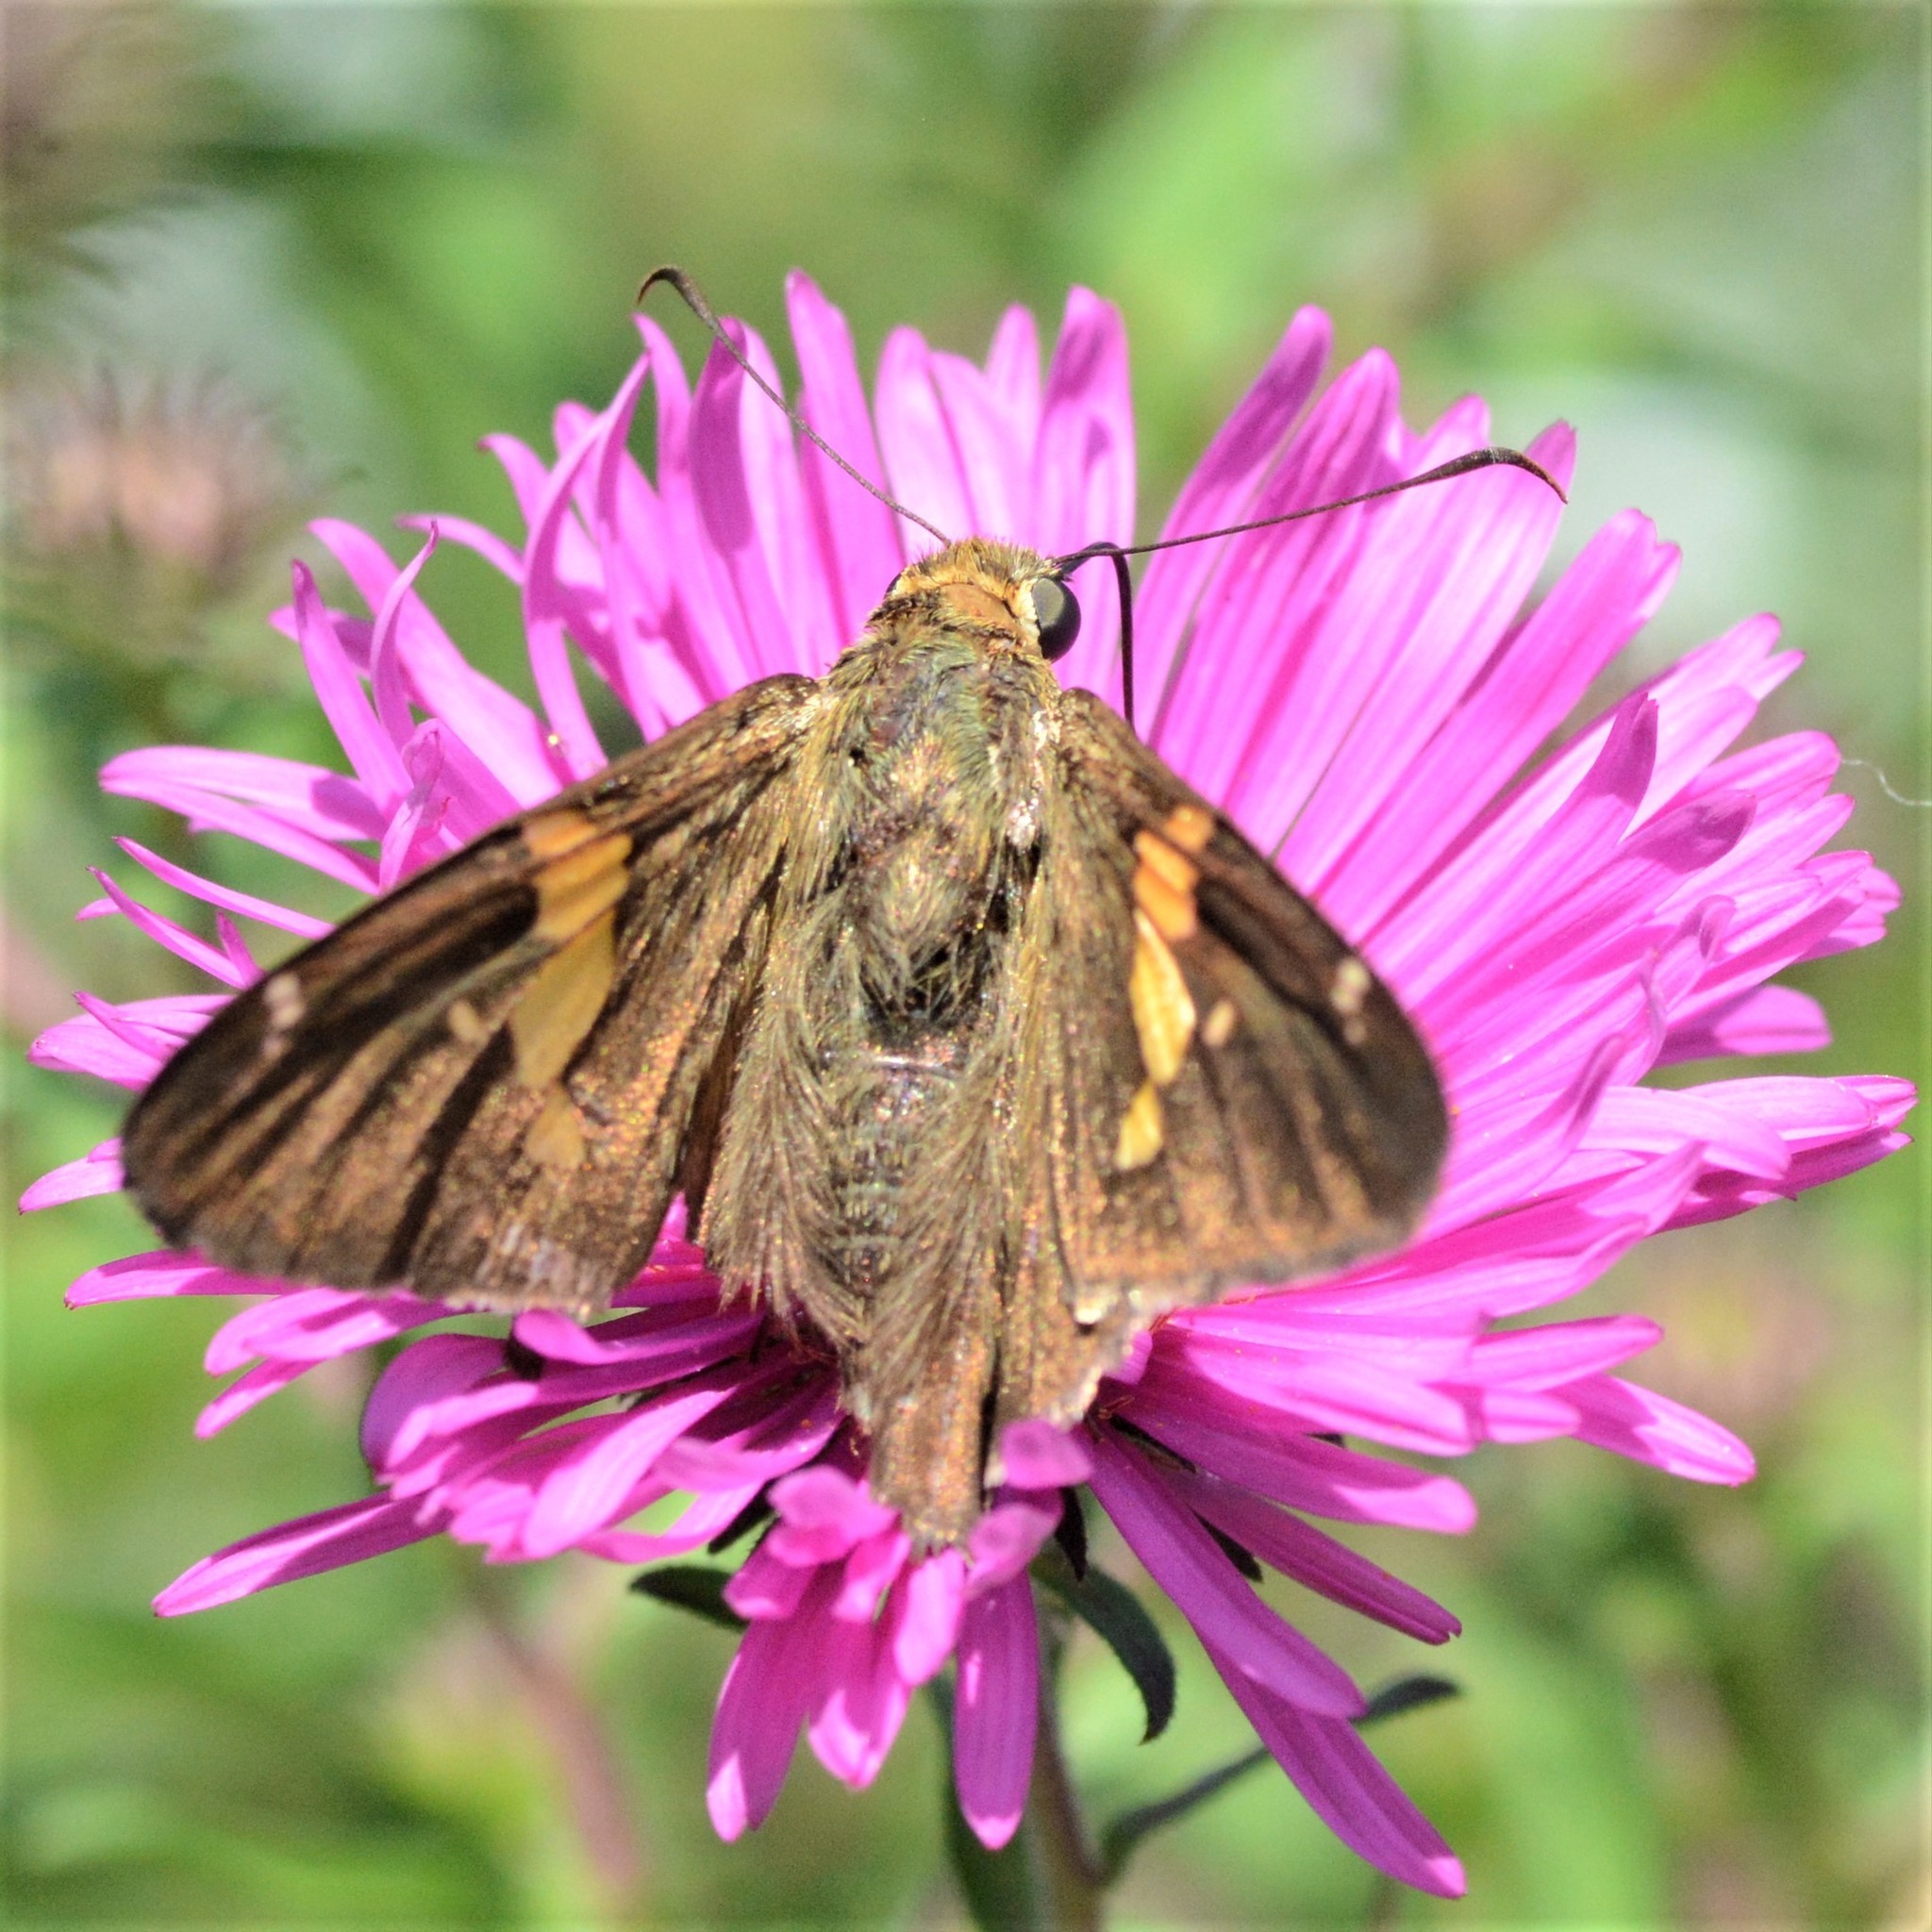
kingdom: Animalia
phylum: Arthropoda
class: Insecta
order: Lepidoptera
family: Hesperiidae
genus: Epargyreus
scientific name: Epargyreus clarus
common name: Silver-spotted skipper
